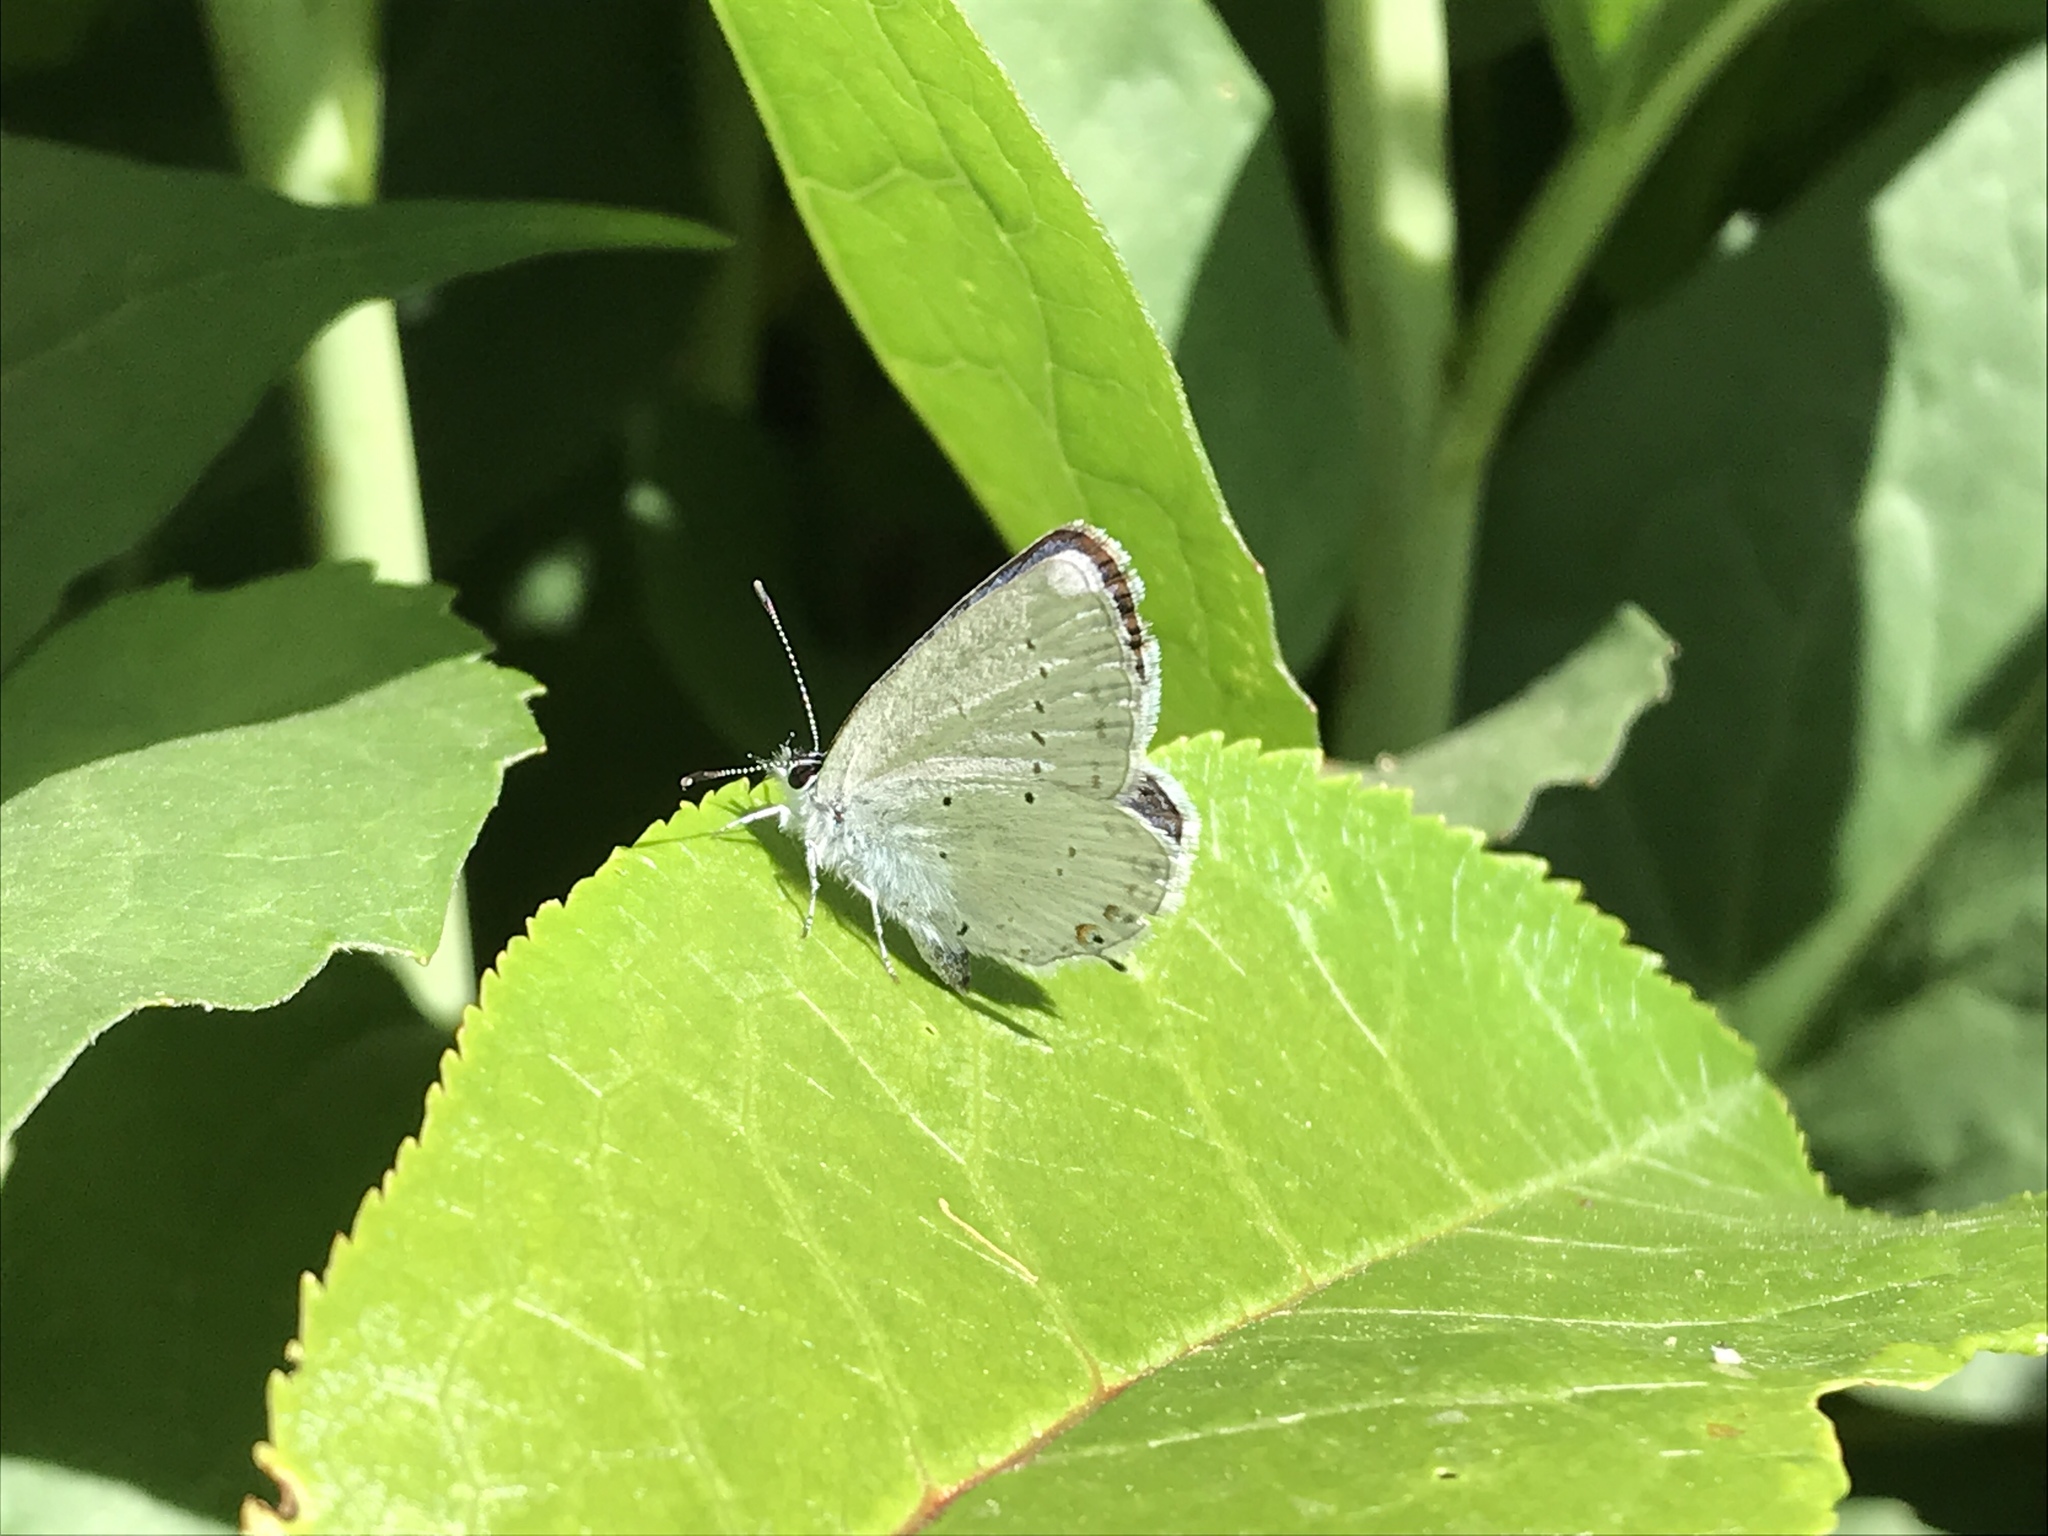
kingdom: Animalia
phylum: Arthropoda
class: Insecta
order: Lepidoptera
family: Lycaenidae
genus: Elkalyce
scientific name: Elkalyce amyntula
